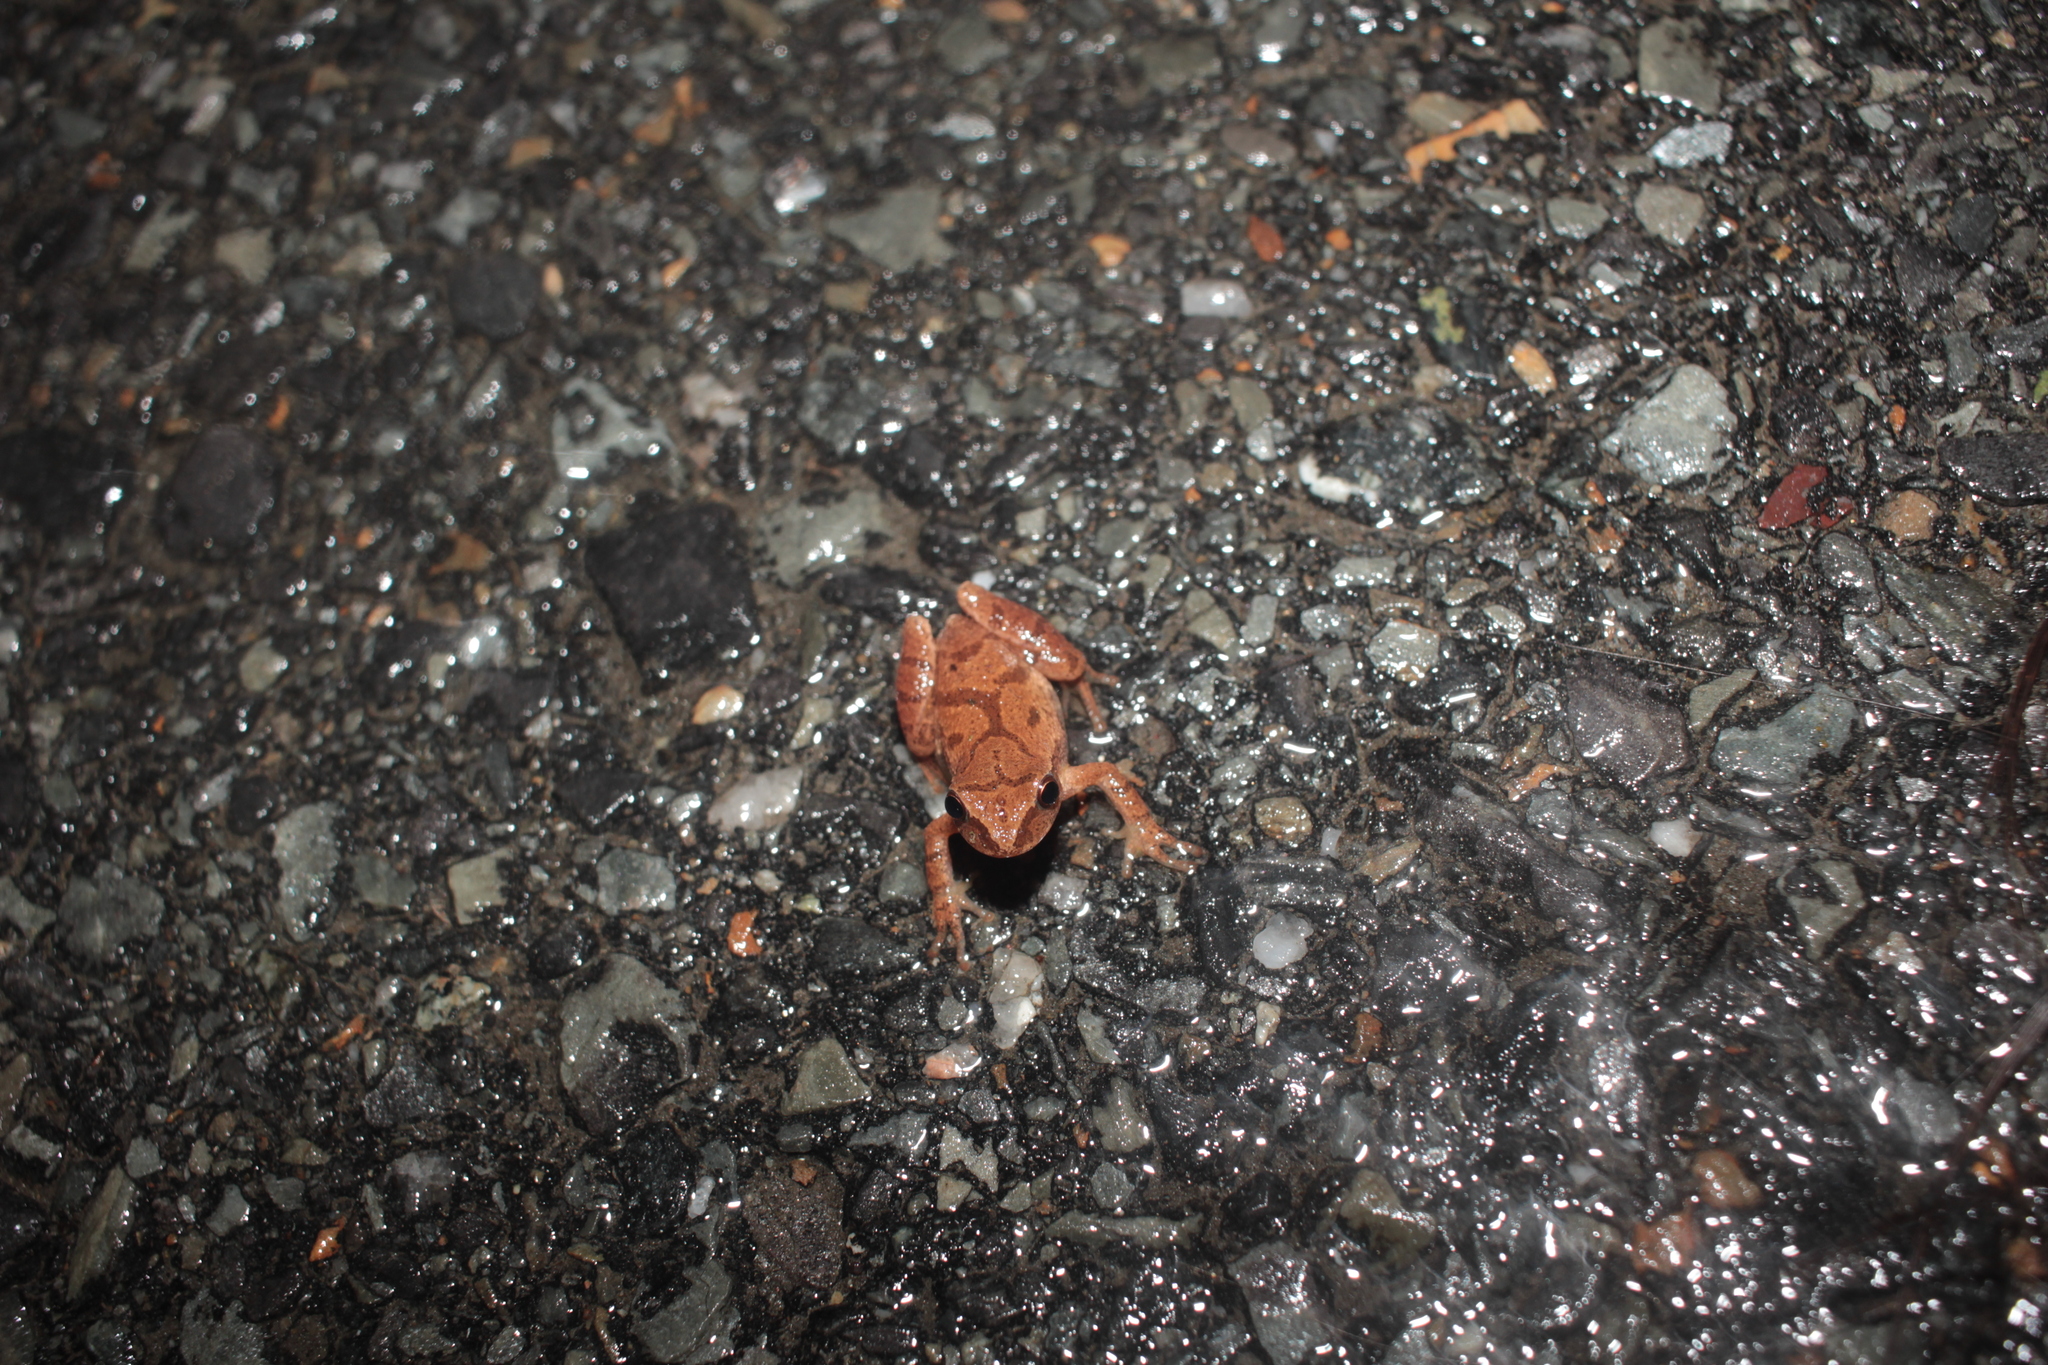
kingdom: Animalia
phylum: Chordata
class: Amphibia
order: Anura
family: Hylidae
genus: Pseudacris
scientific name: Pseudacris crucifer
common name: Spring peeper
